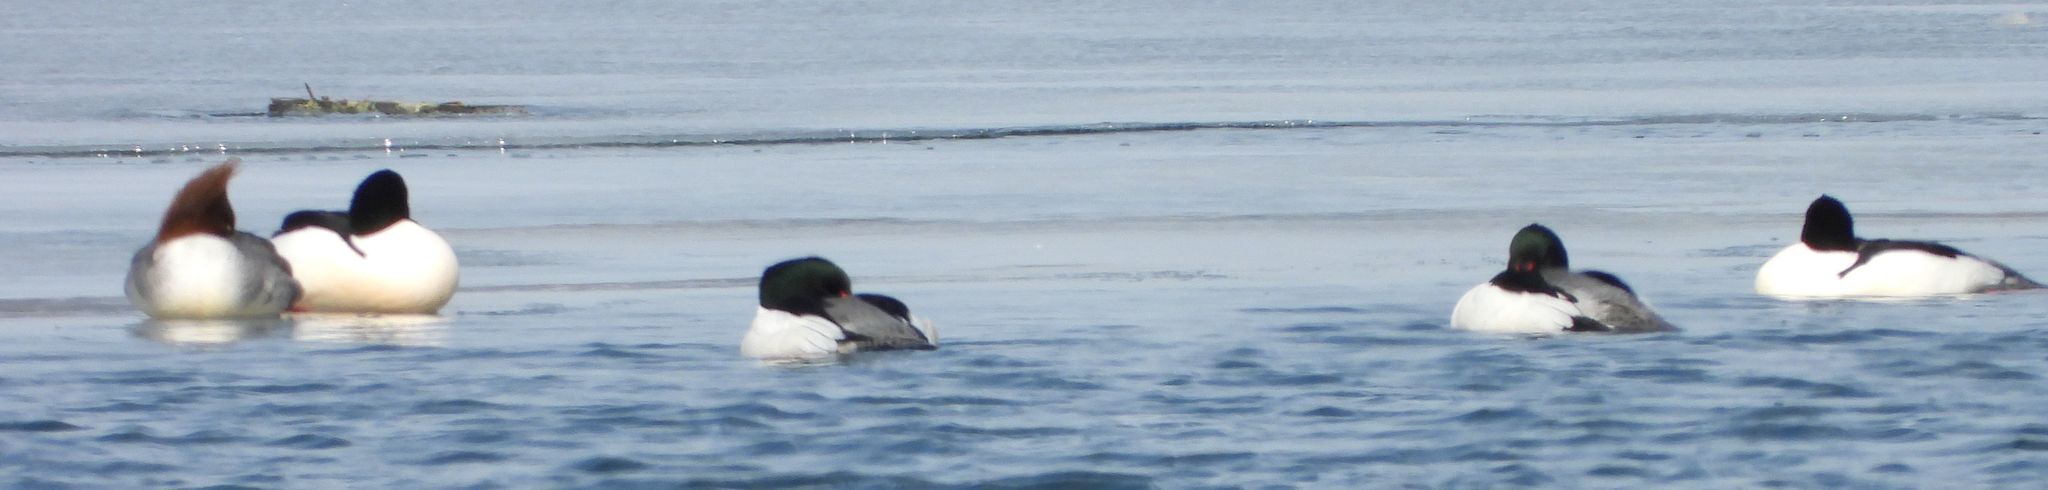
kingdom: Animalia
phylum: Chordata
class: Aves
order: Anseriformes
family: Anatidae
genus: Mergus
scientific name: Mergus merganser
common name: Common merganser
